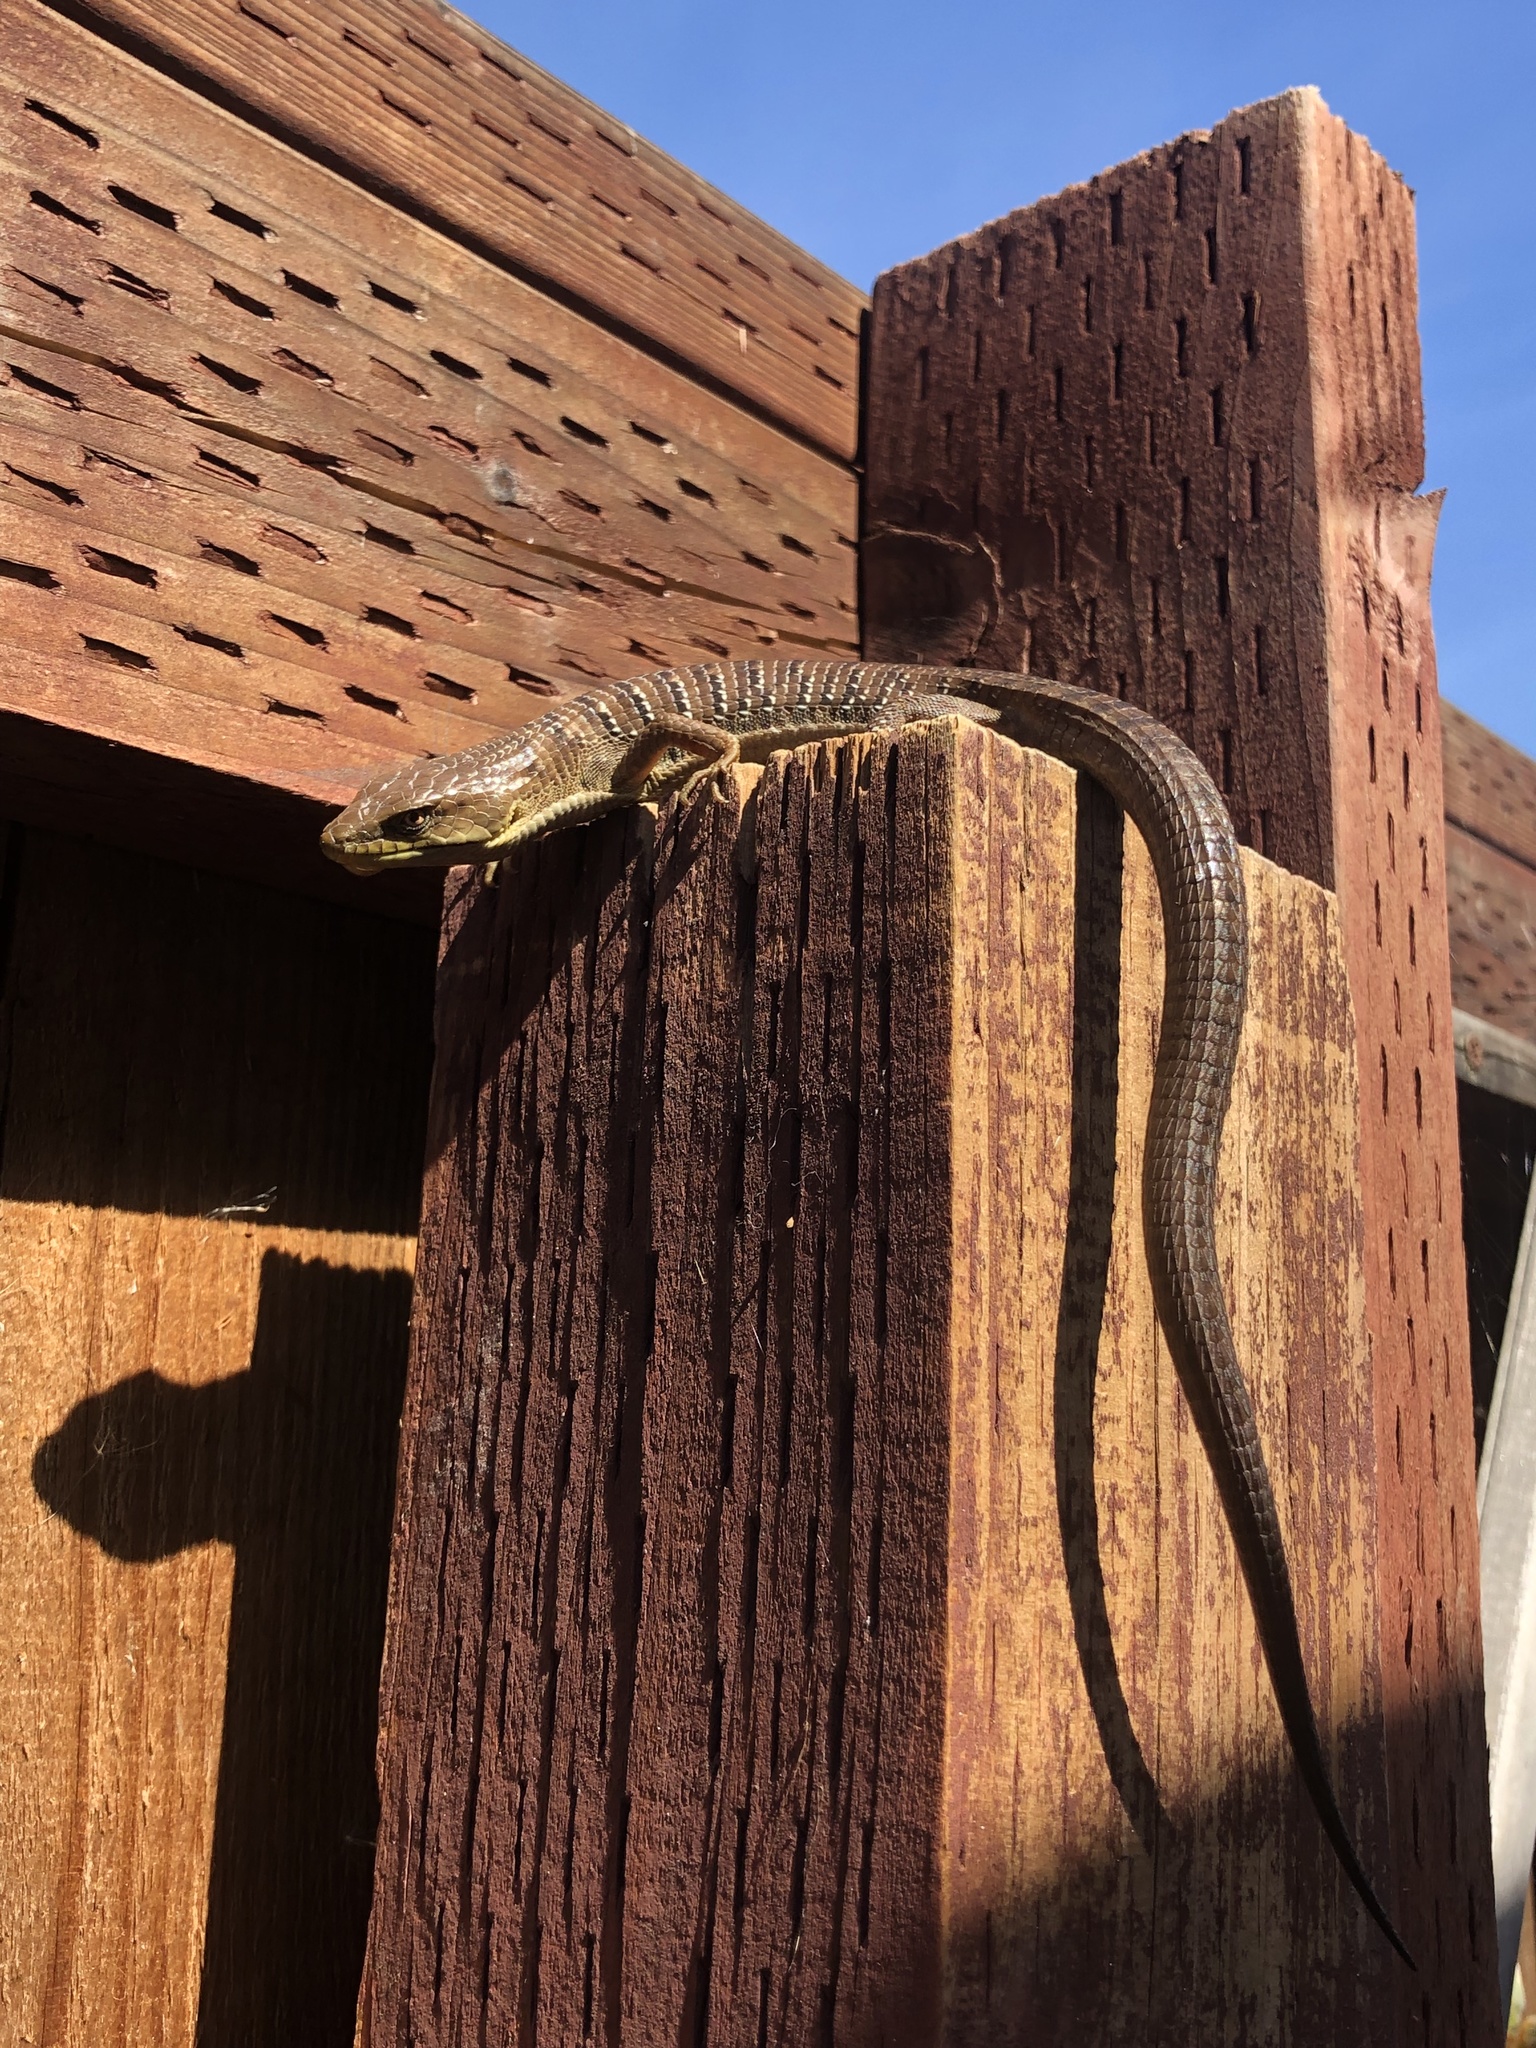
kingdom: Animalia
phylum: Chordata
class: Squamata
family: Anguidae
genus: Elgaria
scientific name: Elgaria multicarinata
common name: Southern alligator lizard
